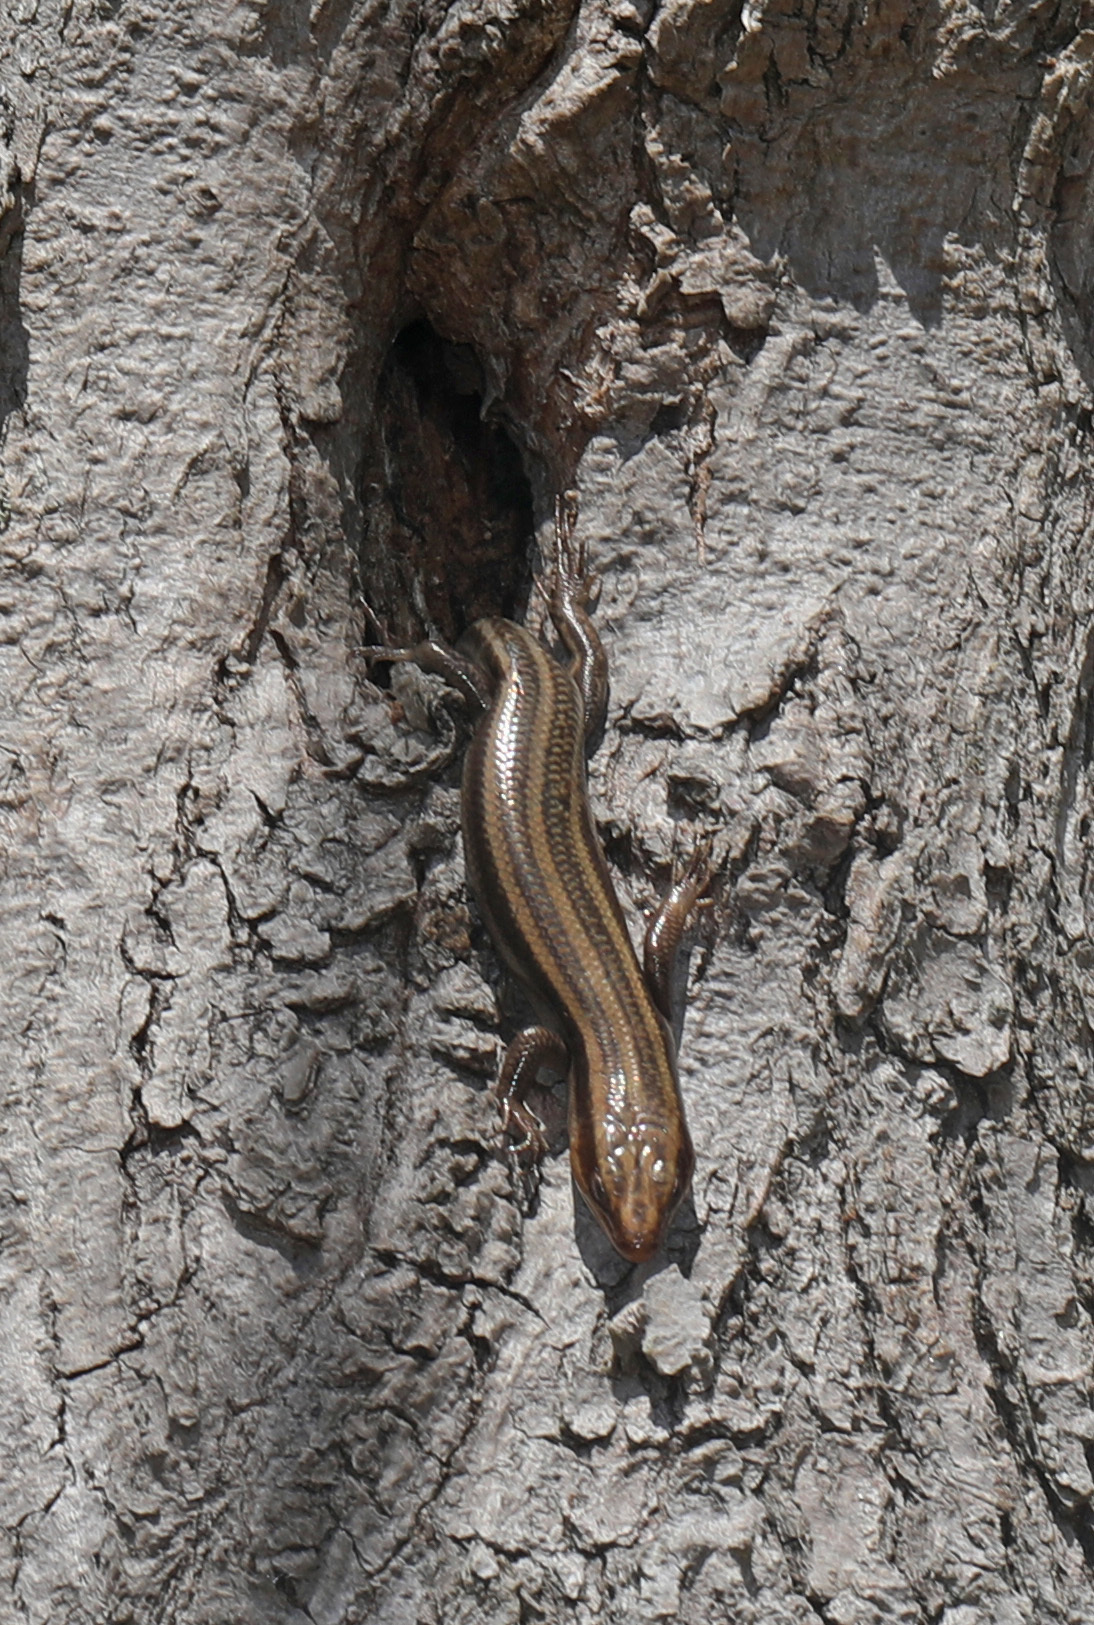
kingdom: Animalia
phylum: Chordata
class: Squamata
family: Scincidae
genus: Plestiodon
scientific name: Plestiodon fasciatus
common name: Five-lined skink
